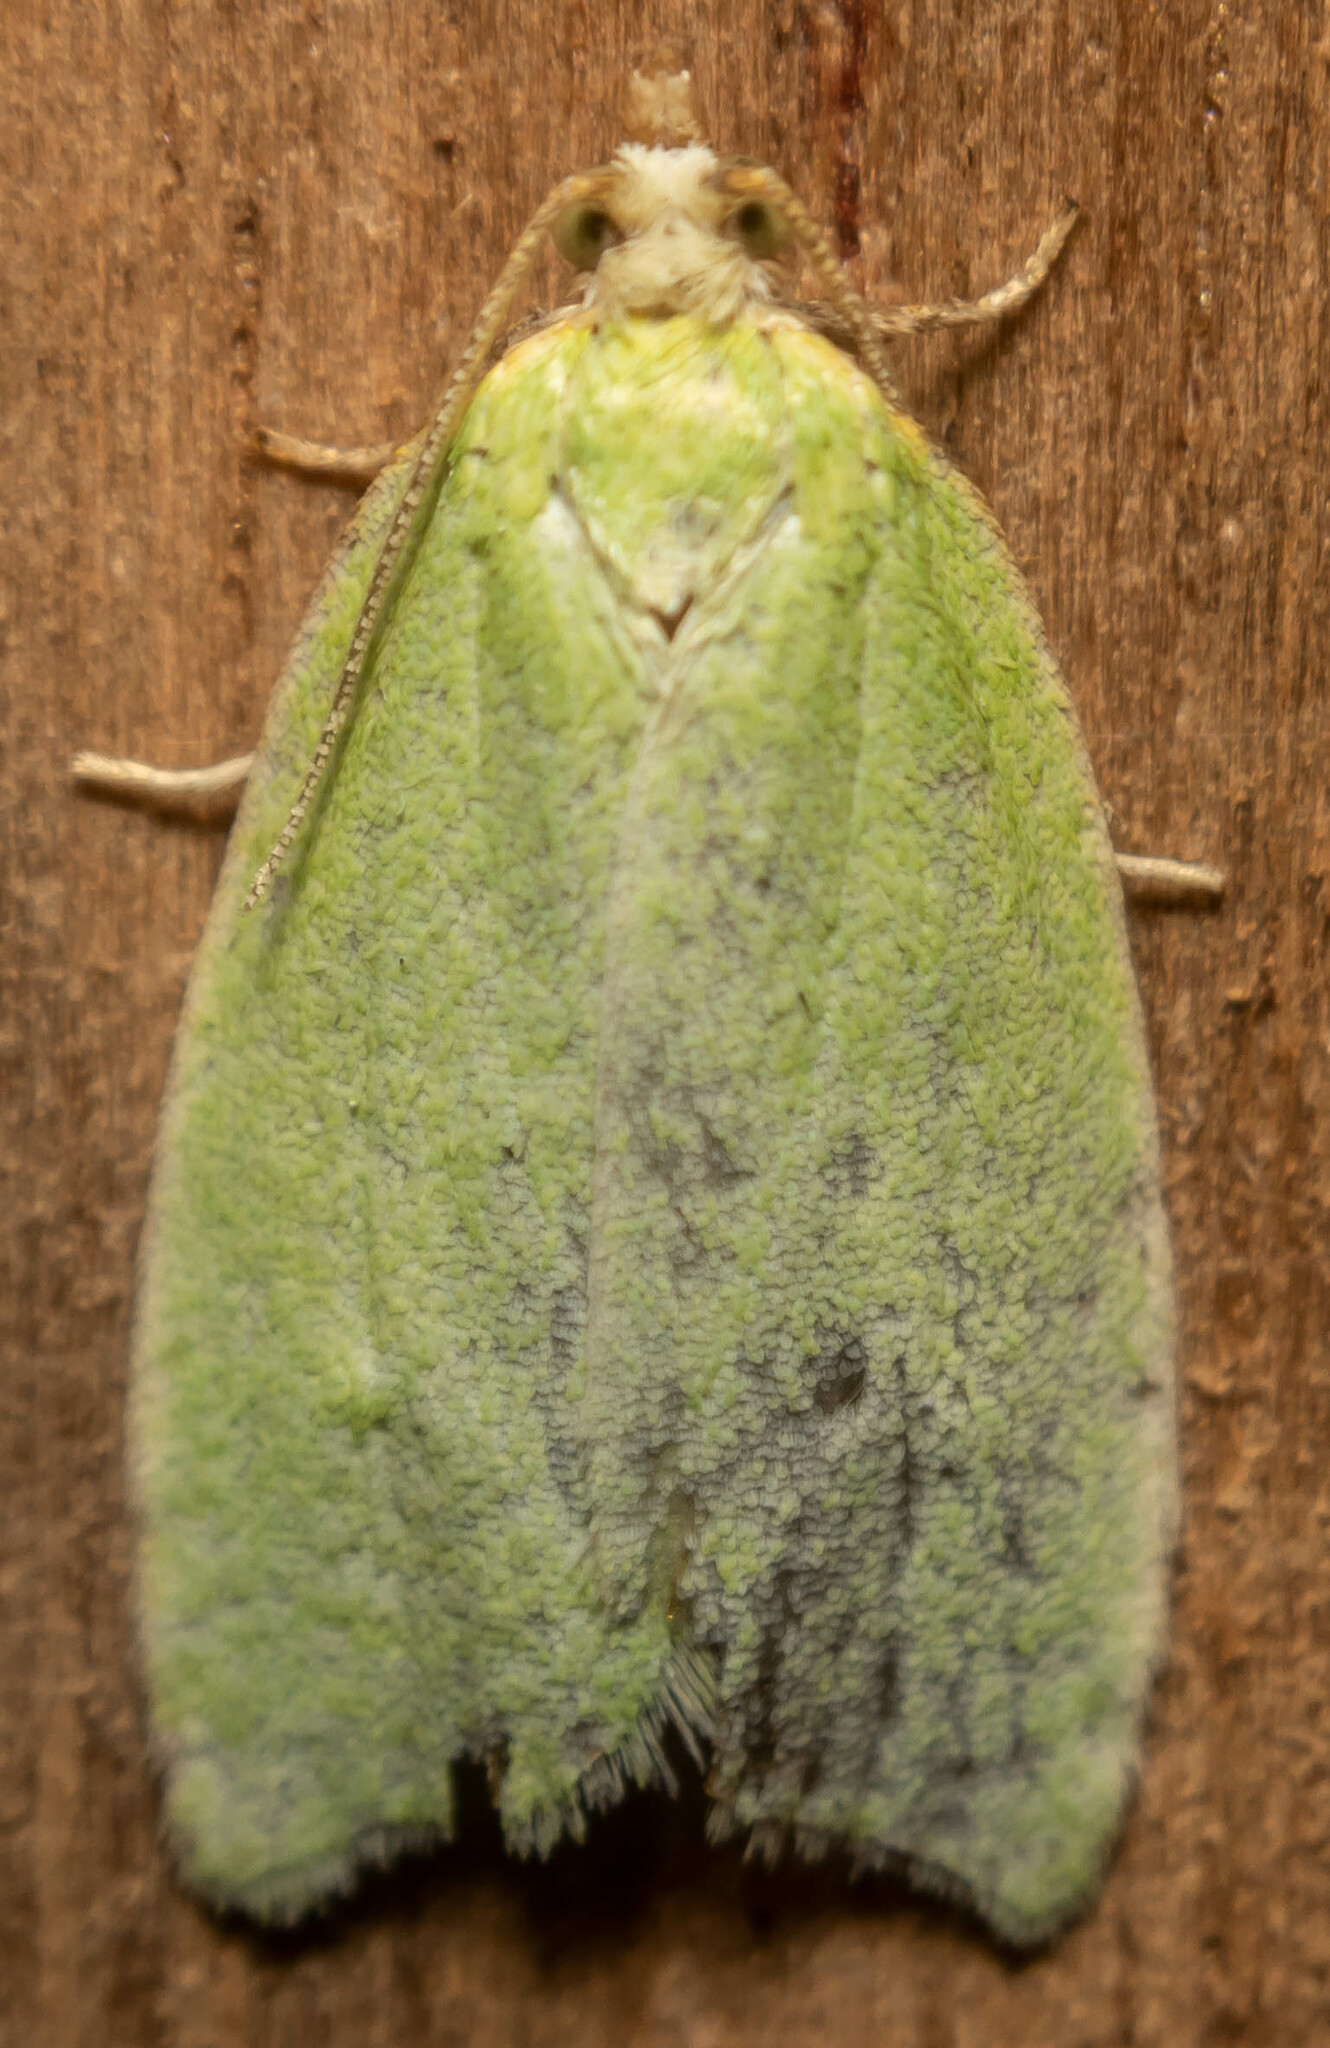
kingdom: Animalia
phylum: Arthropoda
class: Insecta
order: Lepidoptera
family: Tortricidae
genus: Tortrix
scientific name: Tortrix viridana
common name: Green oak tortrix
